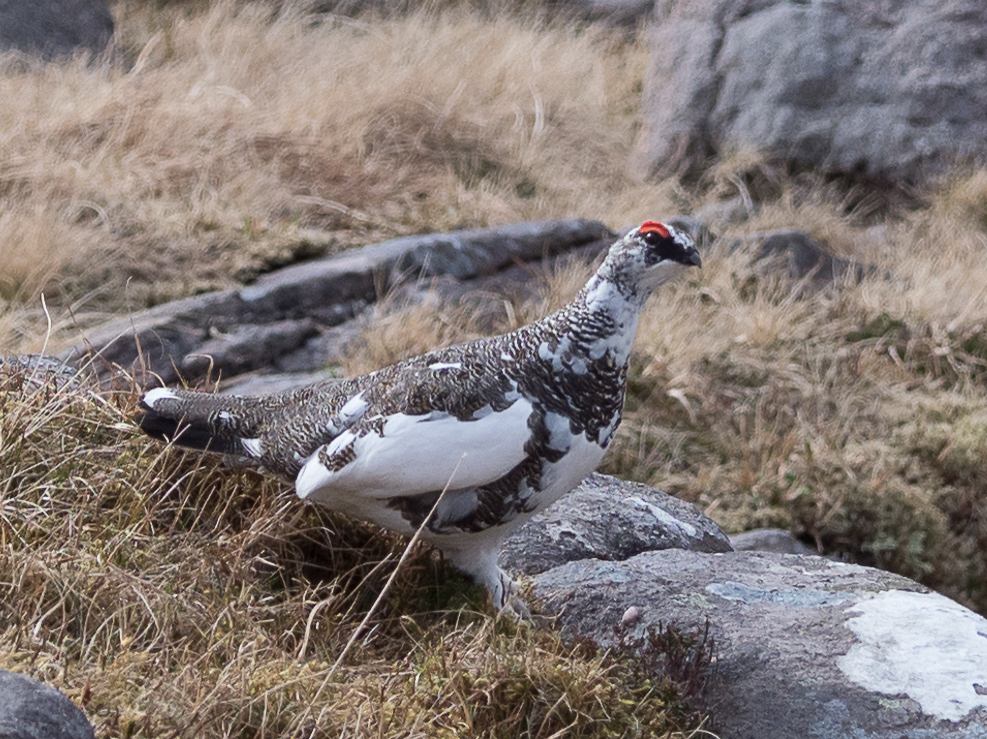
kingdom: Animalia
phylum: Chordata
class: Aves
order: Galliformes
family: Phasianidae
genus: Lagopus
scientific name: Lagopus muta
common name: Rock ptarmigan
